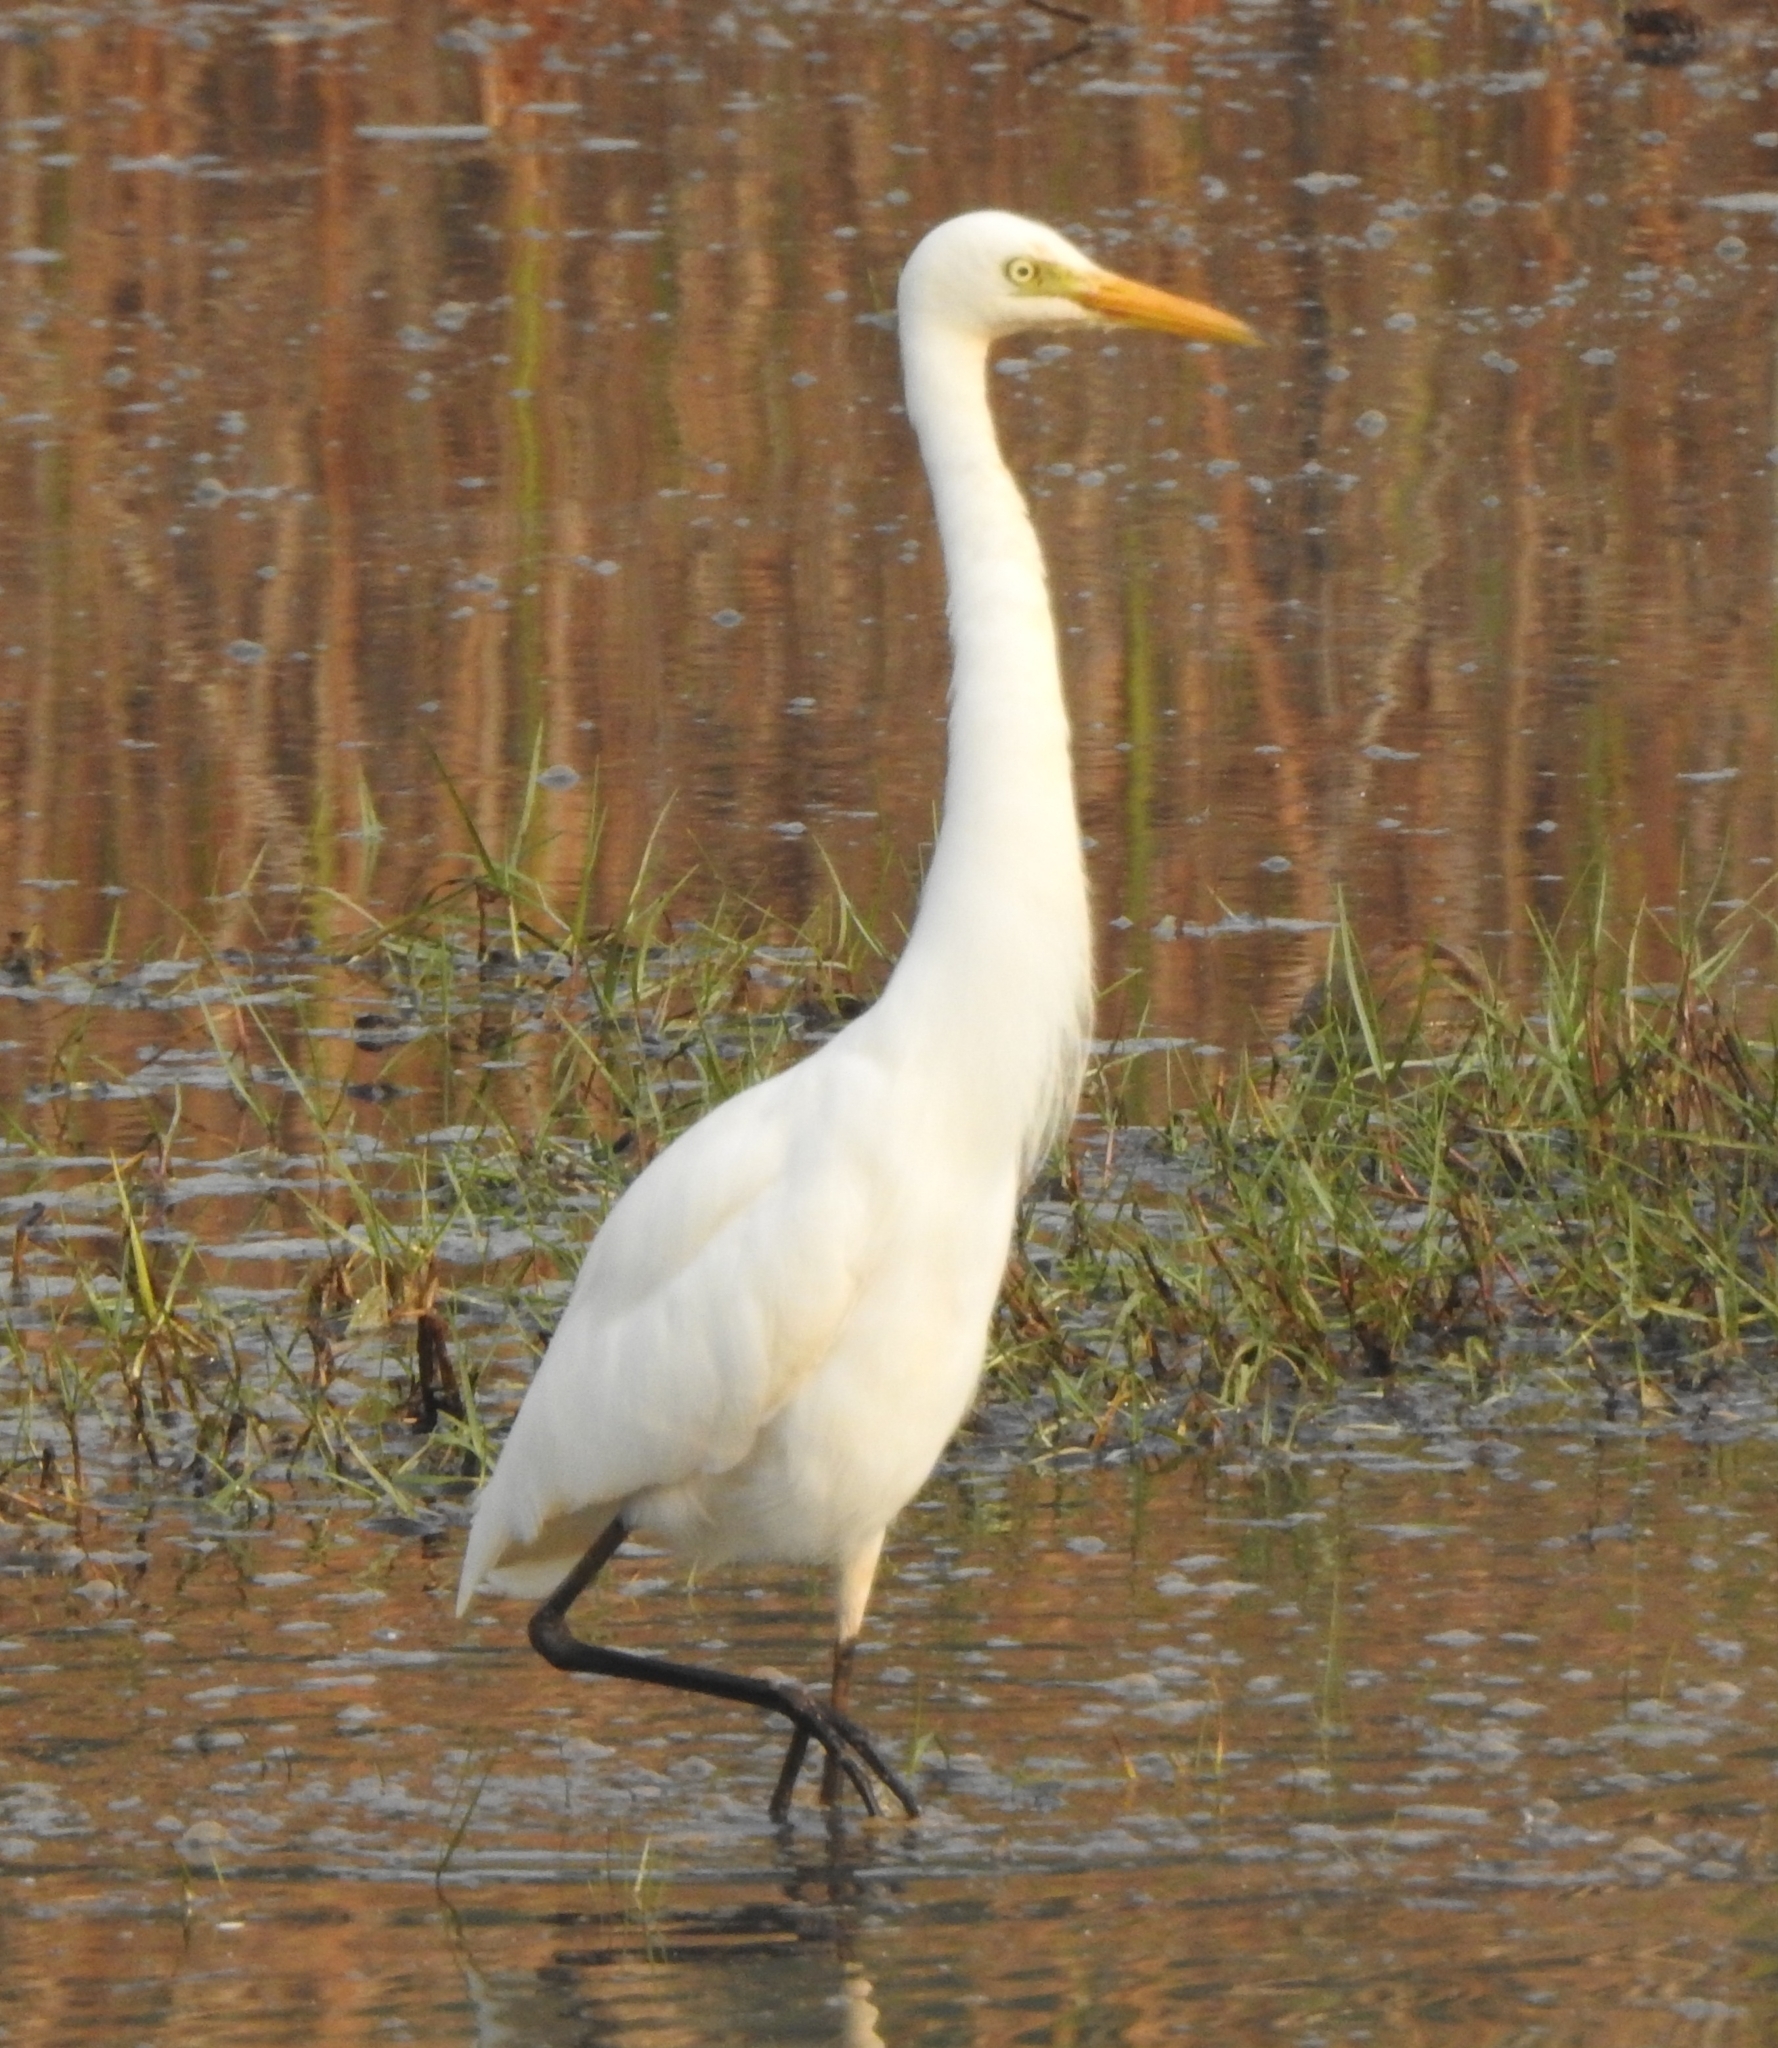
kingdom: Animalia
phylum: Chordata
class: Aves
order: Pelecaniformes
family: Ardeidae
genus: Egretta
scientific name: Egretta intermedia
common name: Intermediate egret
